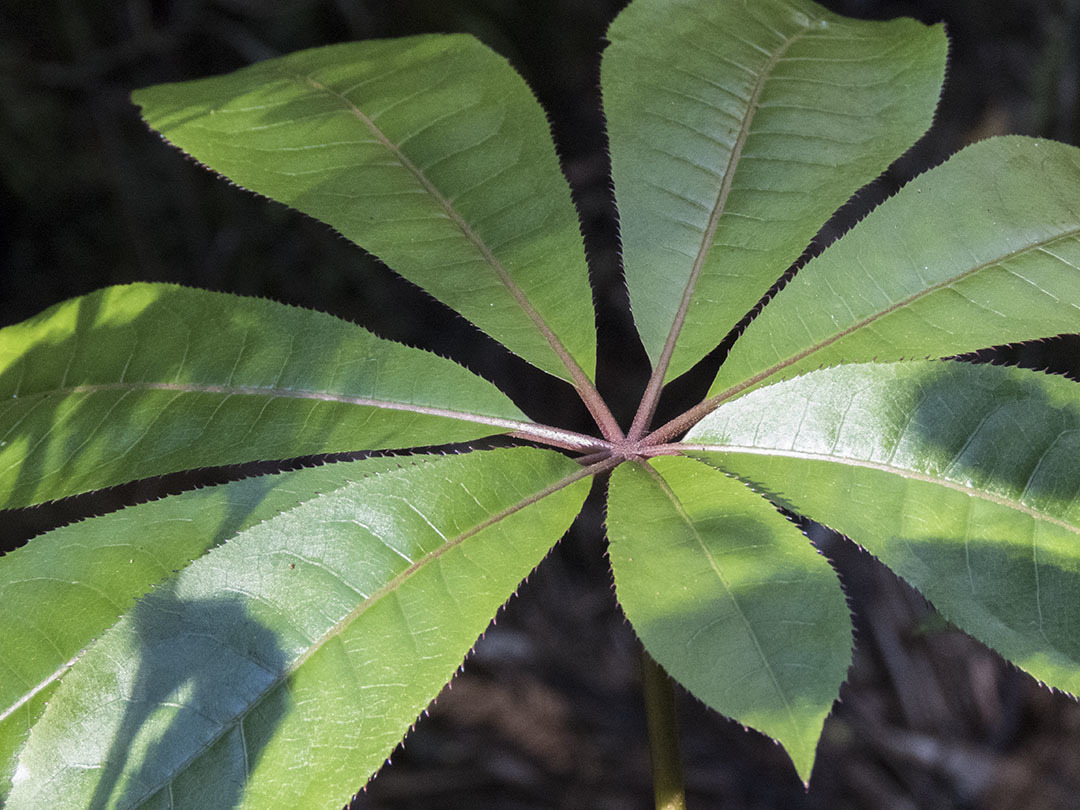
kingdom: Plantae
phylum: Tracheophyta
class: Magnoliopsida
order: Apiales
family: Araliaceae
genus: Schefflera
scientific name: Schefflera digitata
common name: Pate
